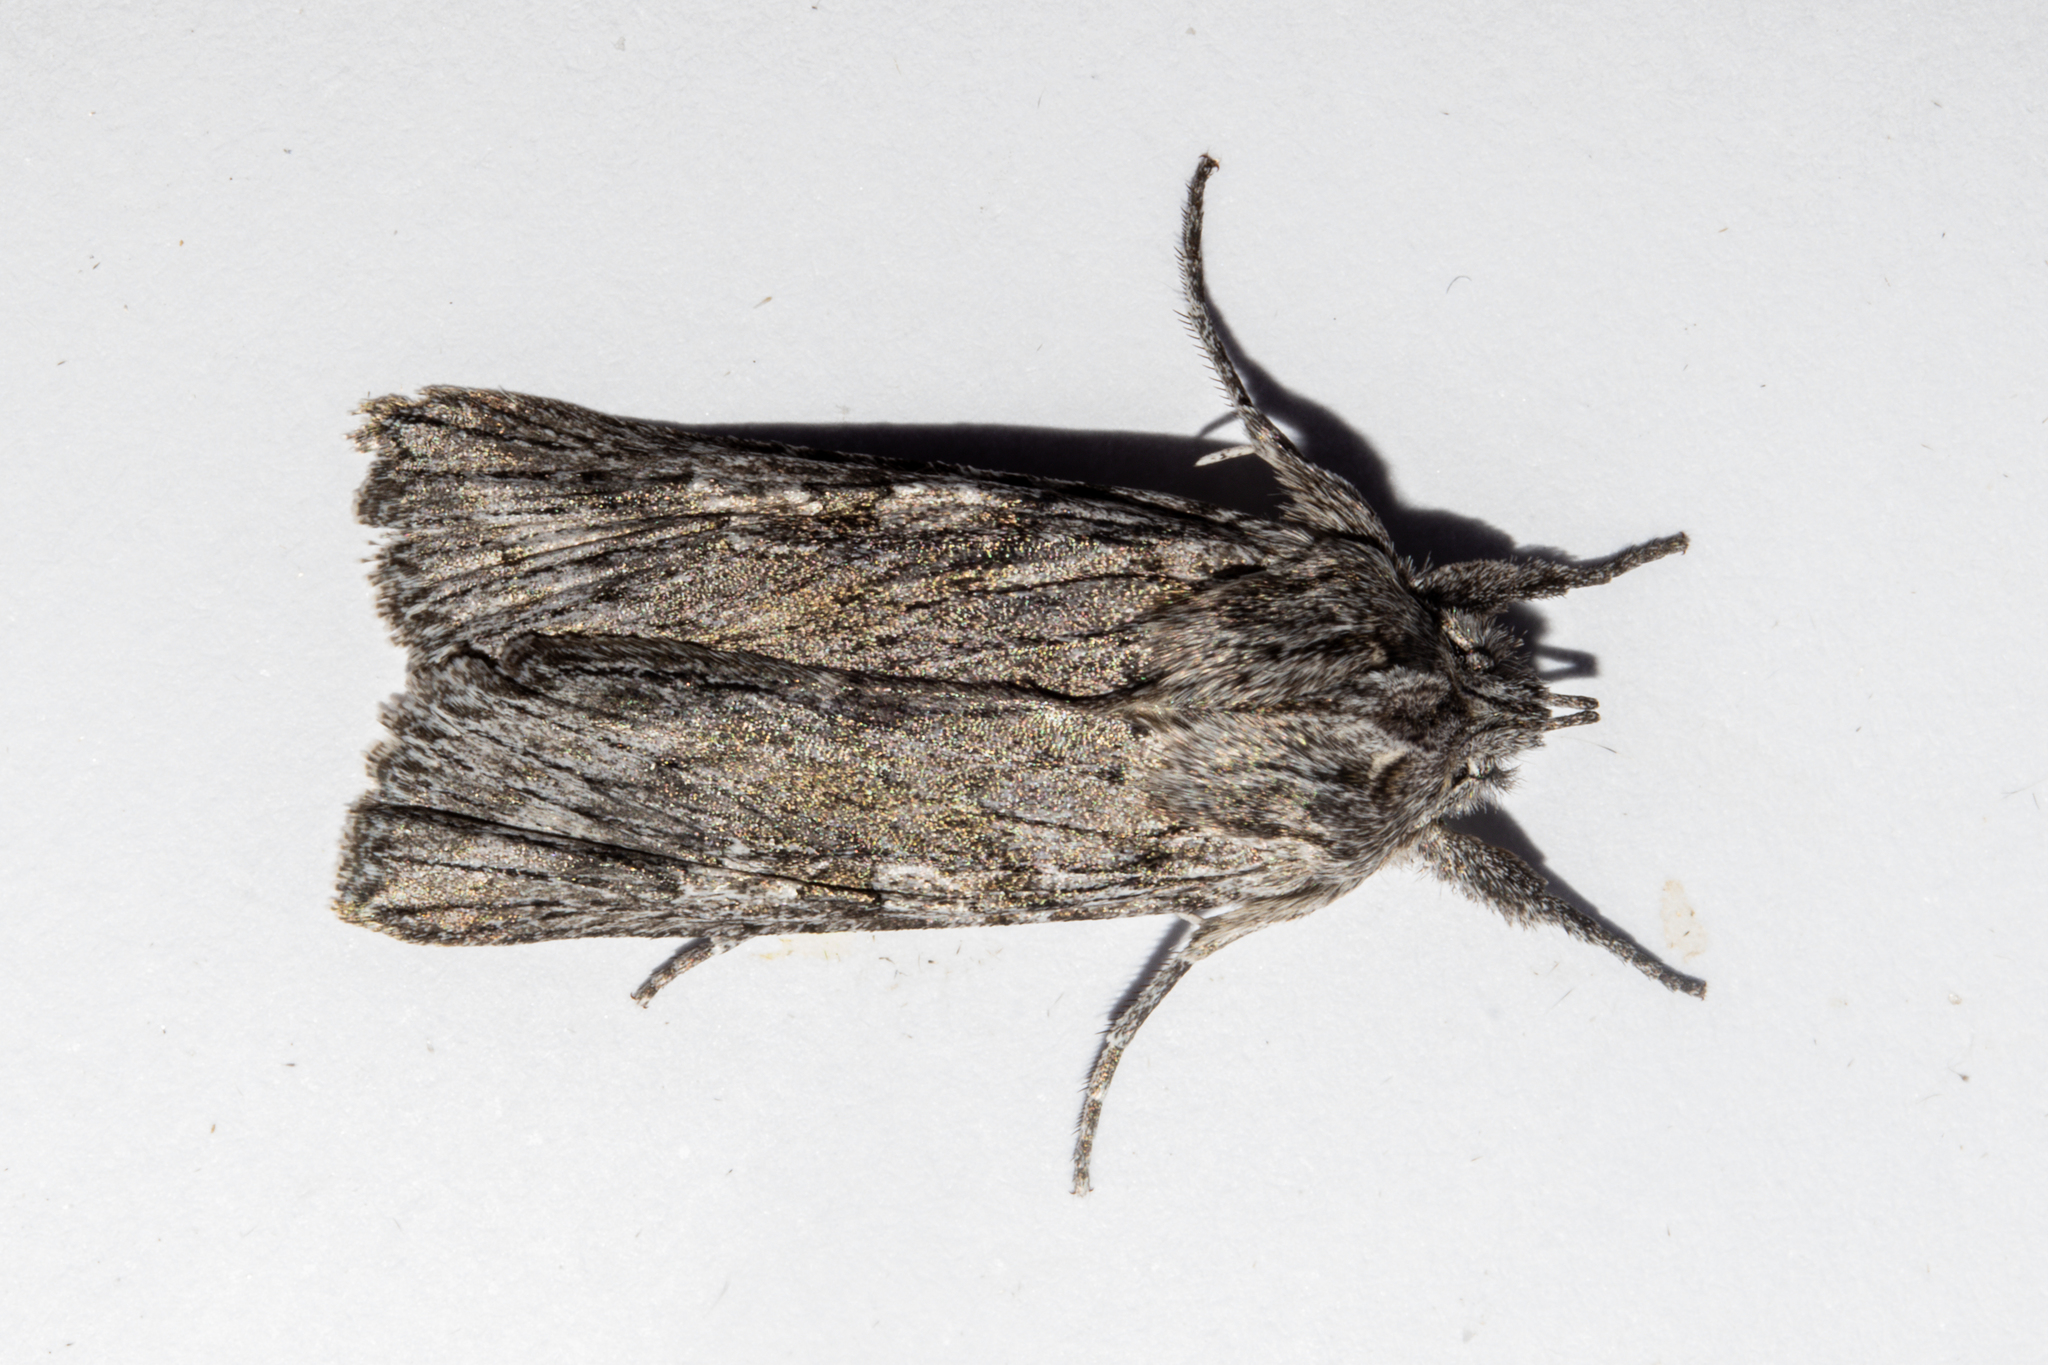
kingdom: Animalia
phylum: Arthropoda
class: Insecta
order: Lepidoptera
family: Noctuidae
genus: Physetica
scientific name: Physetica phricias
